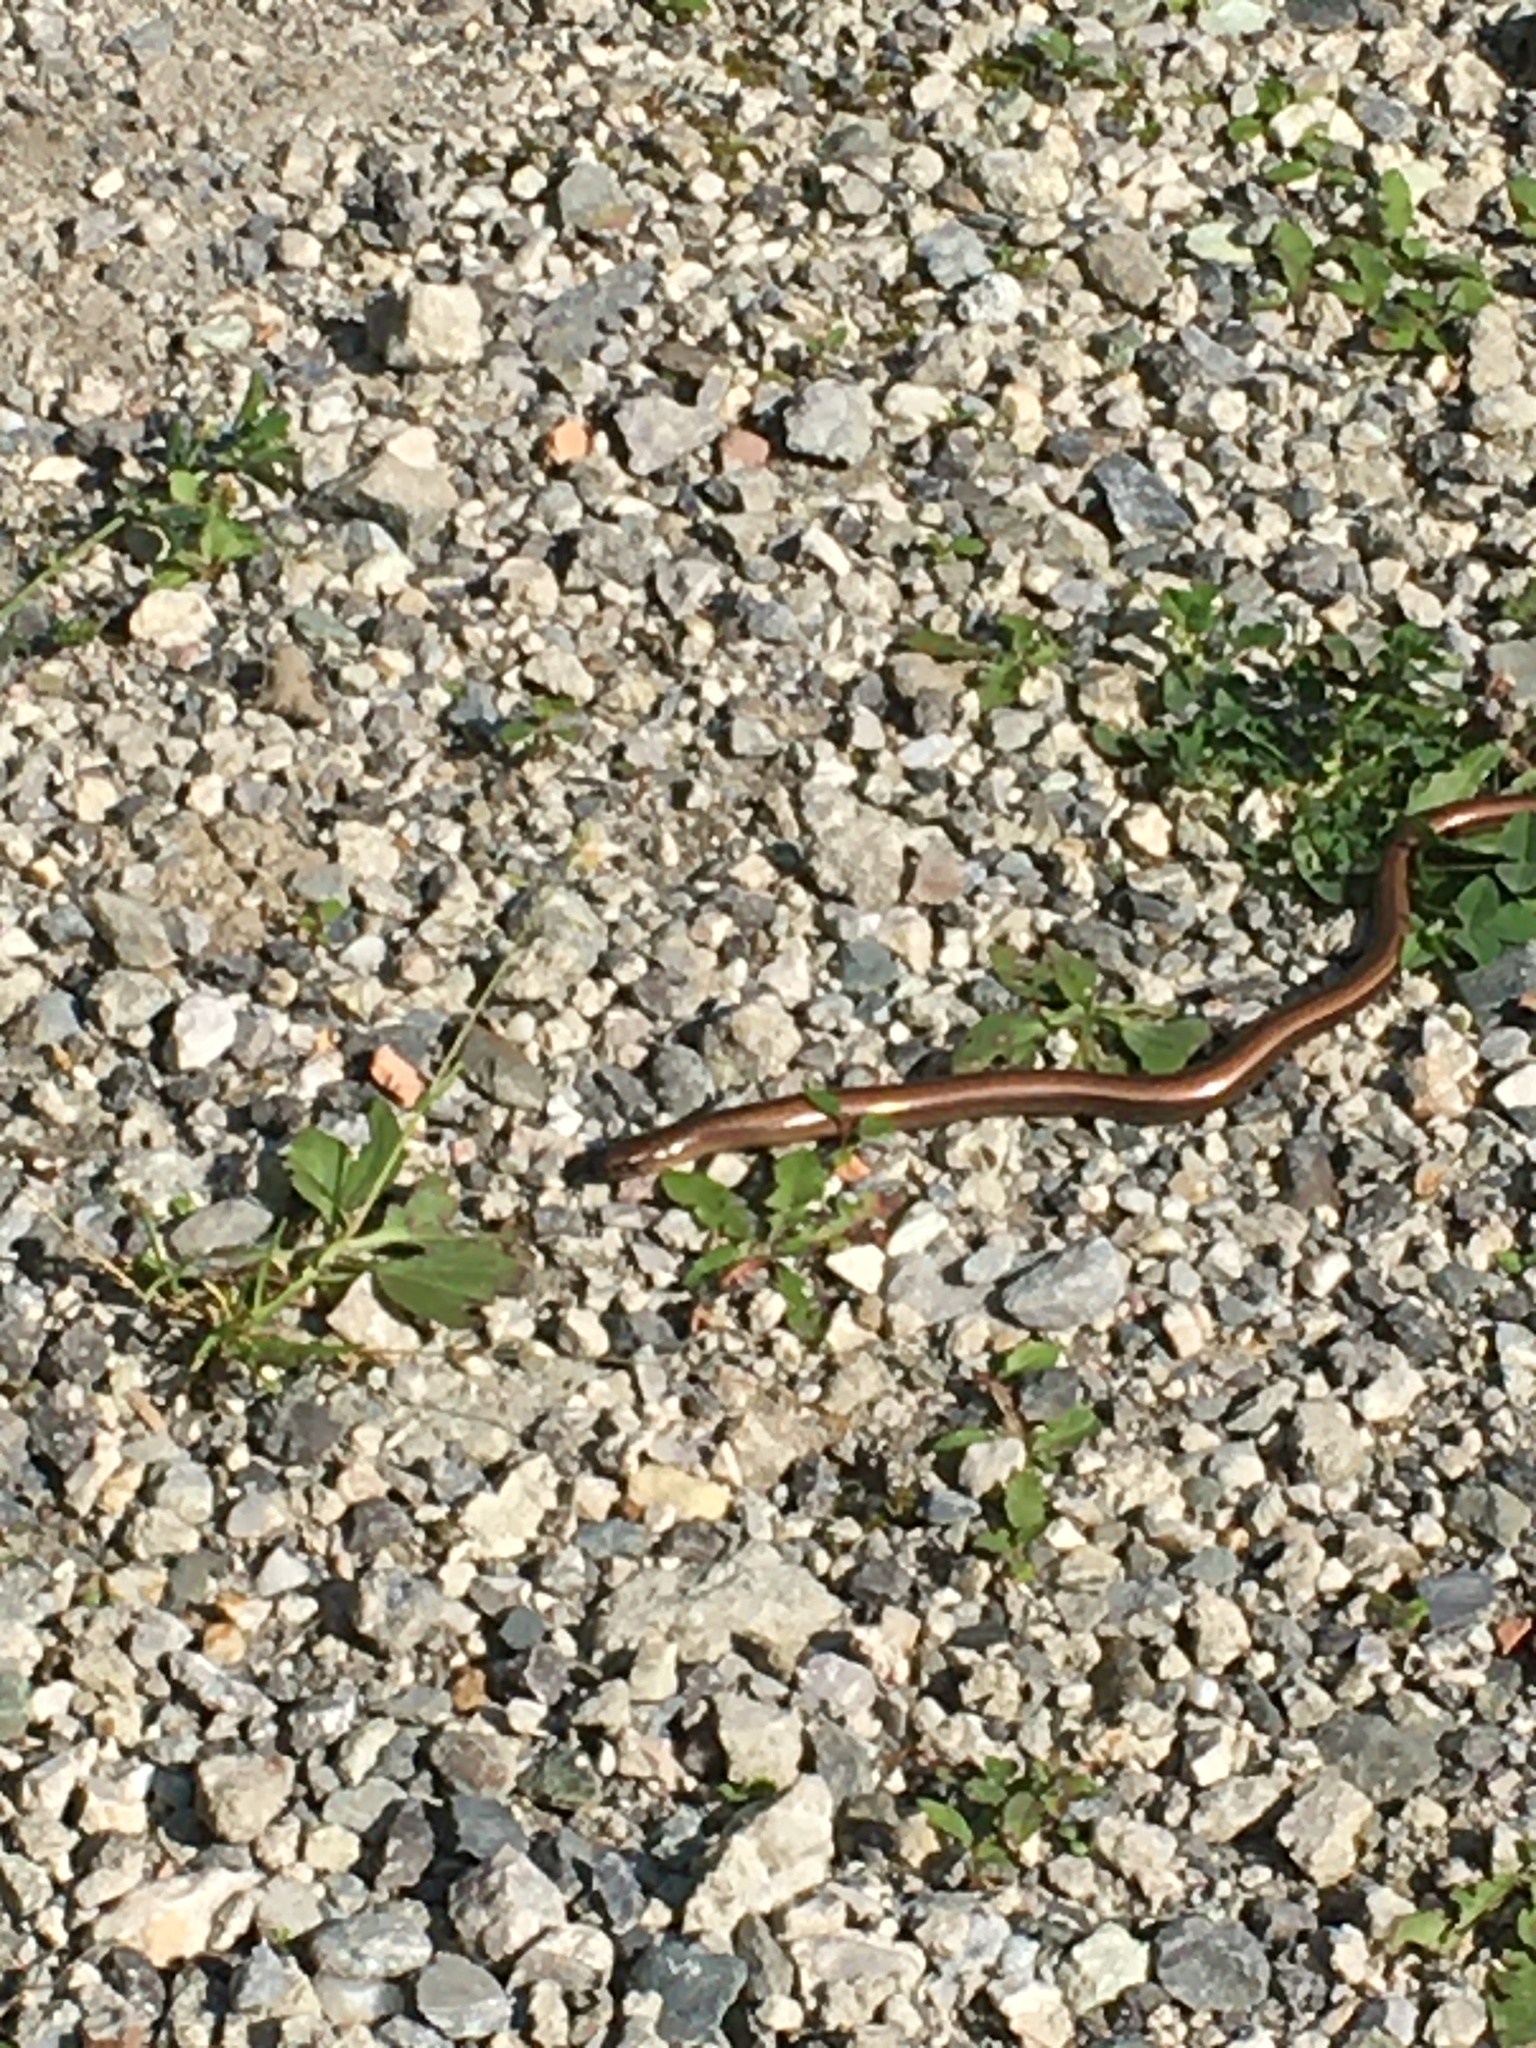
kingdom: Animalia
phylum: Chordata
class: Squamata
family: Anguidae
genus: Anguis
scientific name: Anguis fragilis
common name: Slow worm
